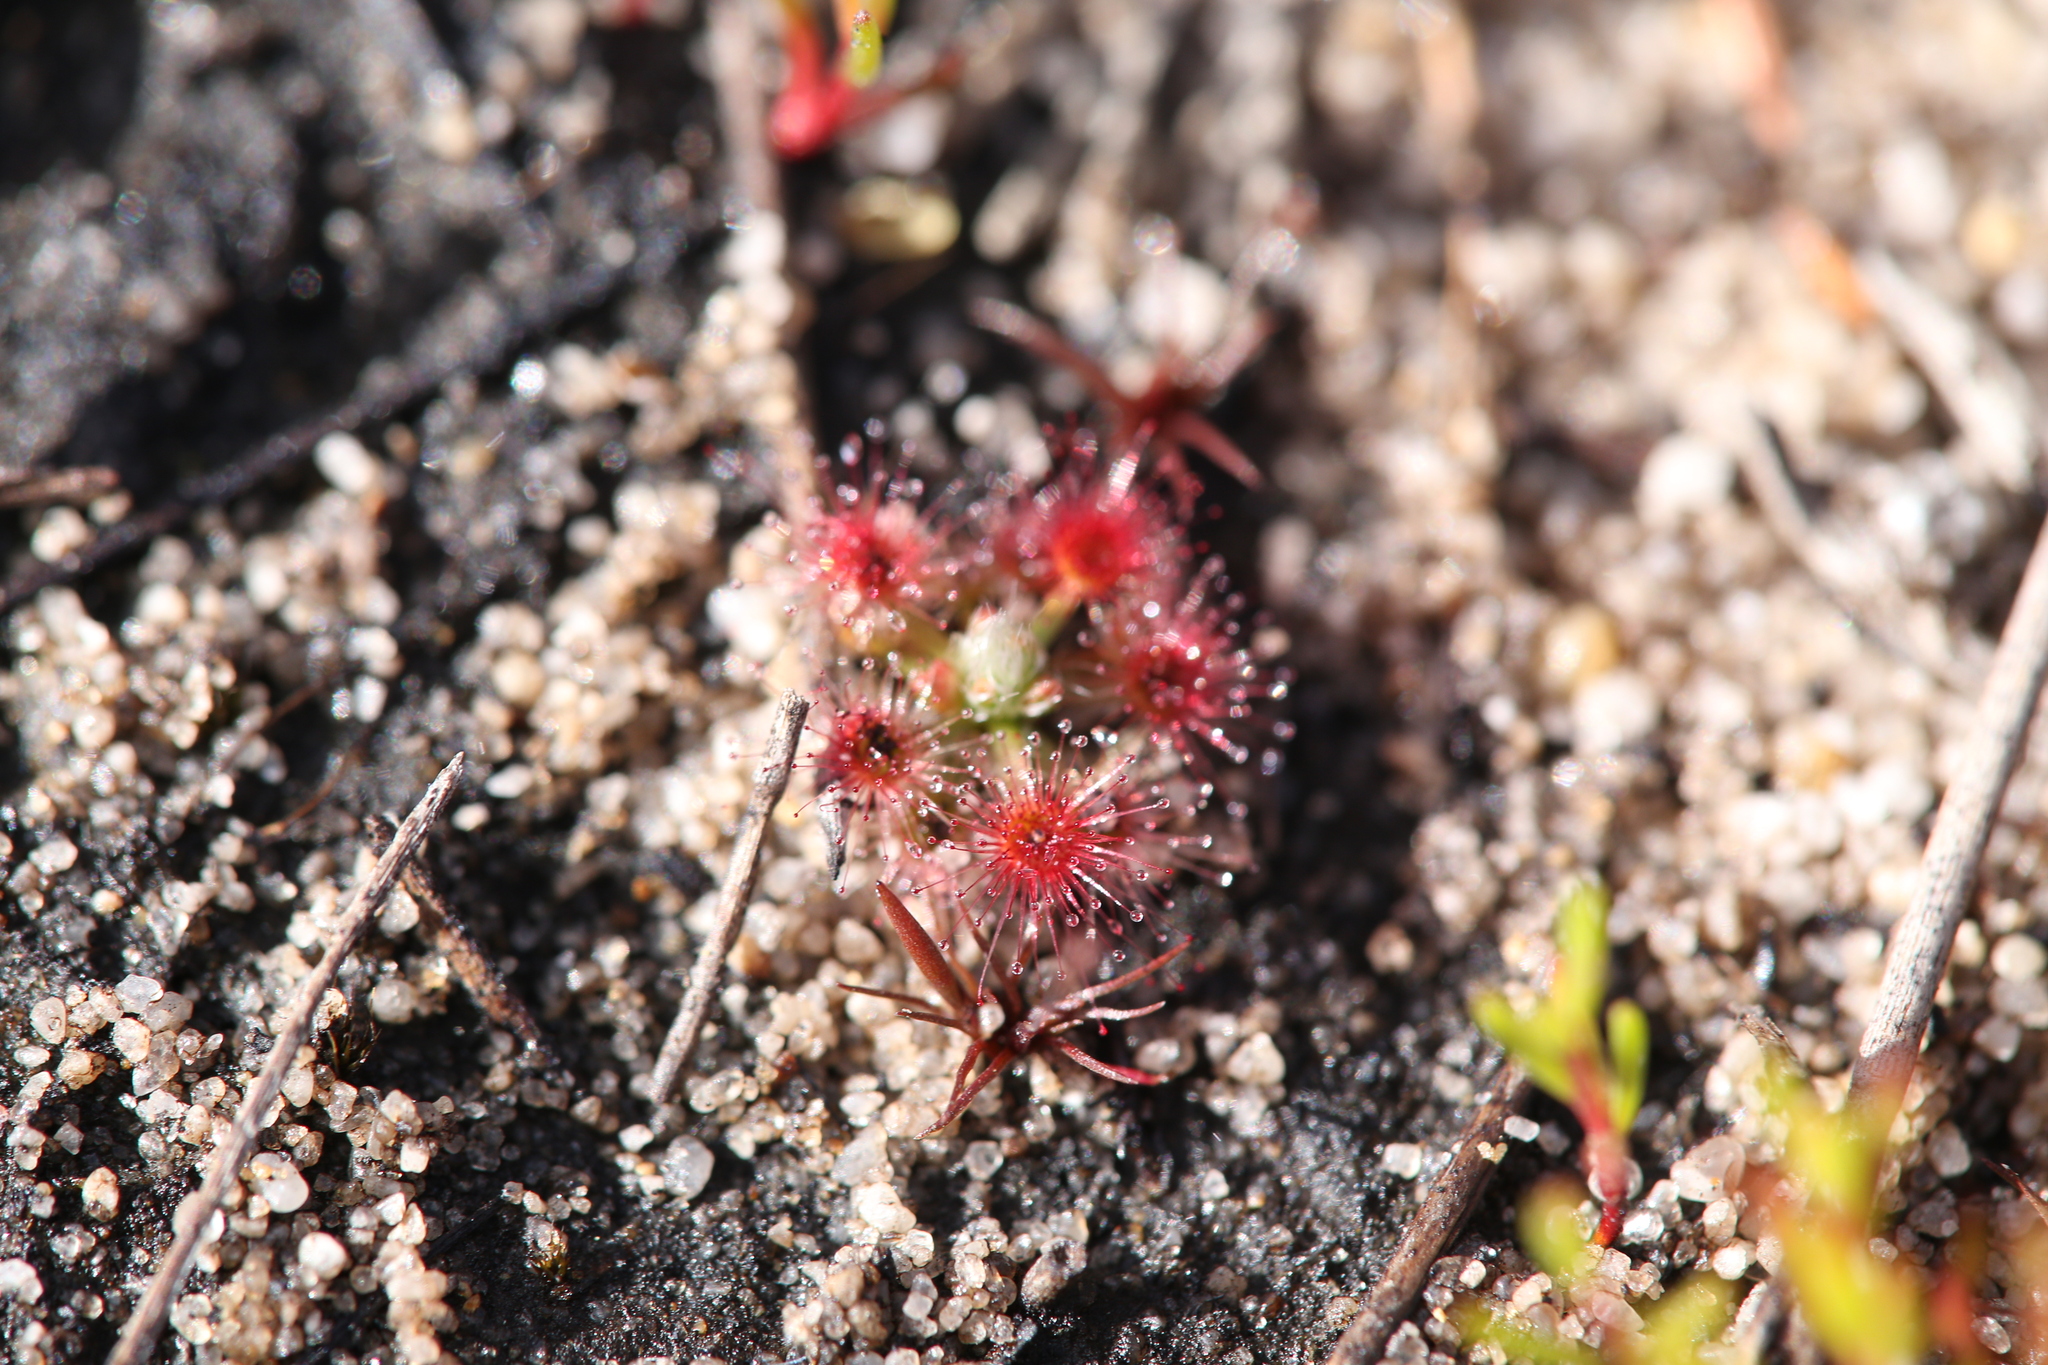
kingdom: Plantae
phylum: Tracheophyta
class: Magnoliopsida
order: Caryophyllales
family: Droseraceae
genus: Drosera
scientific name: Drosera nitidula
